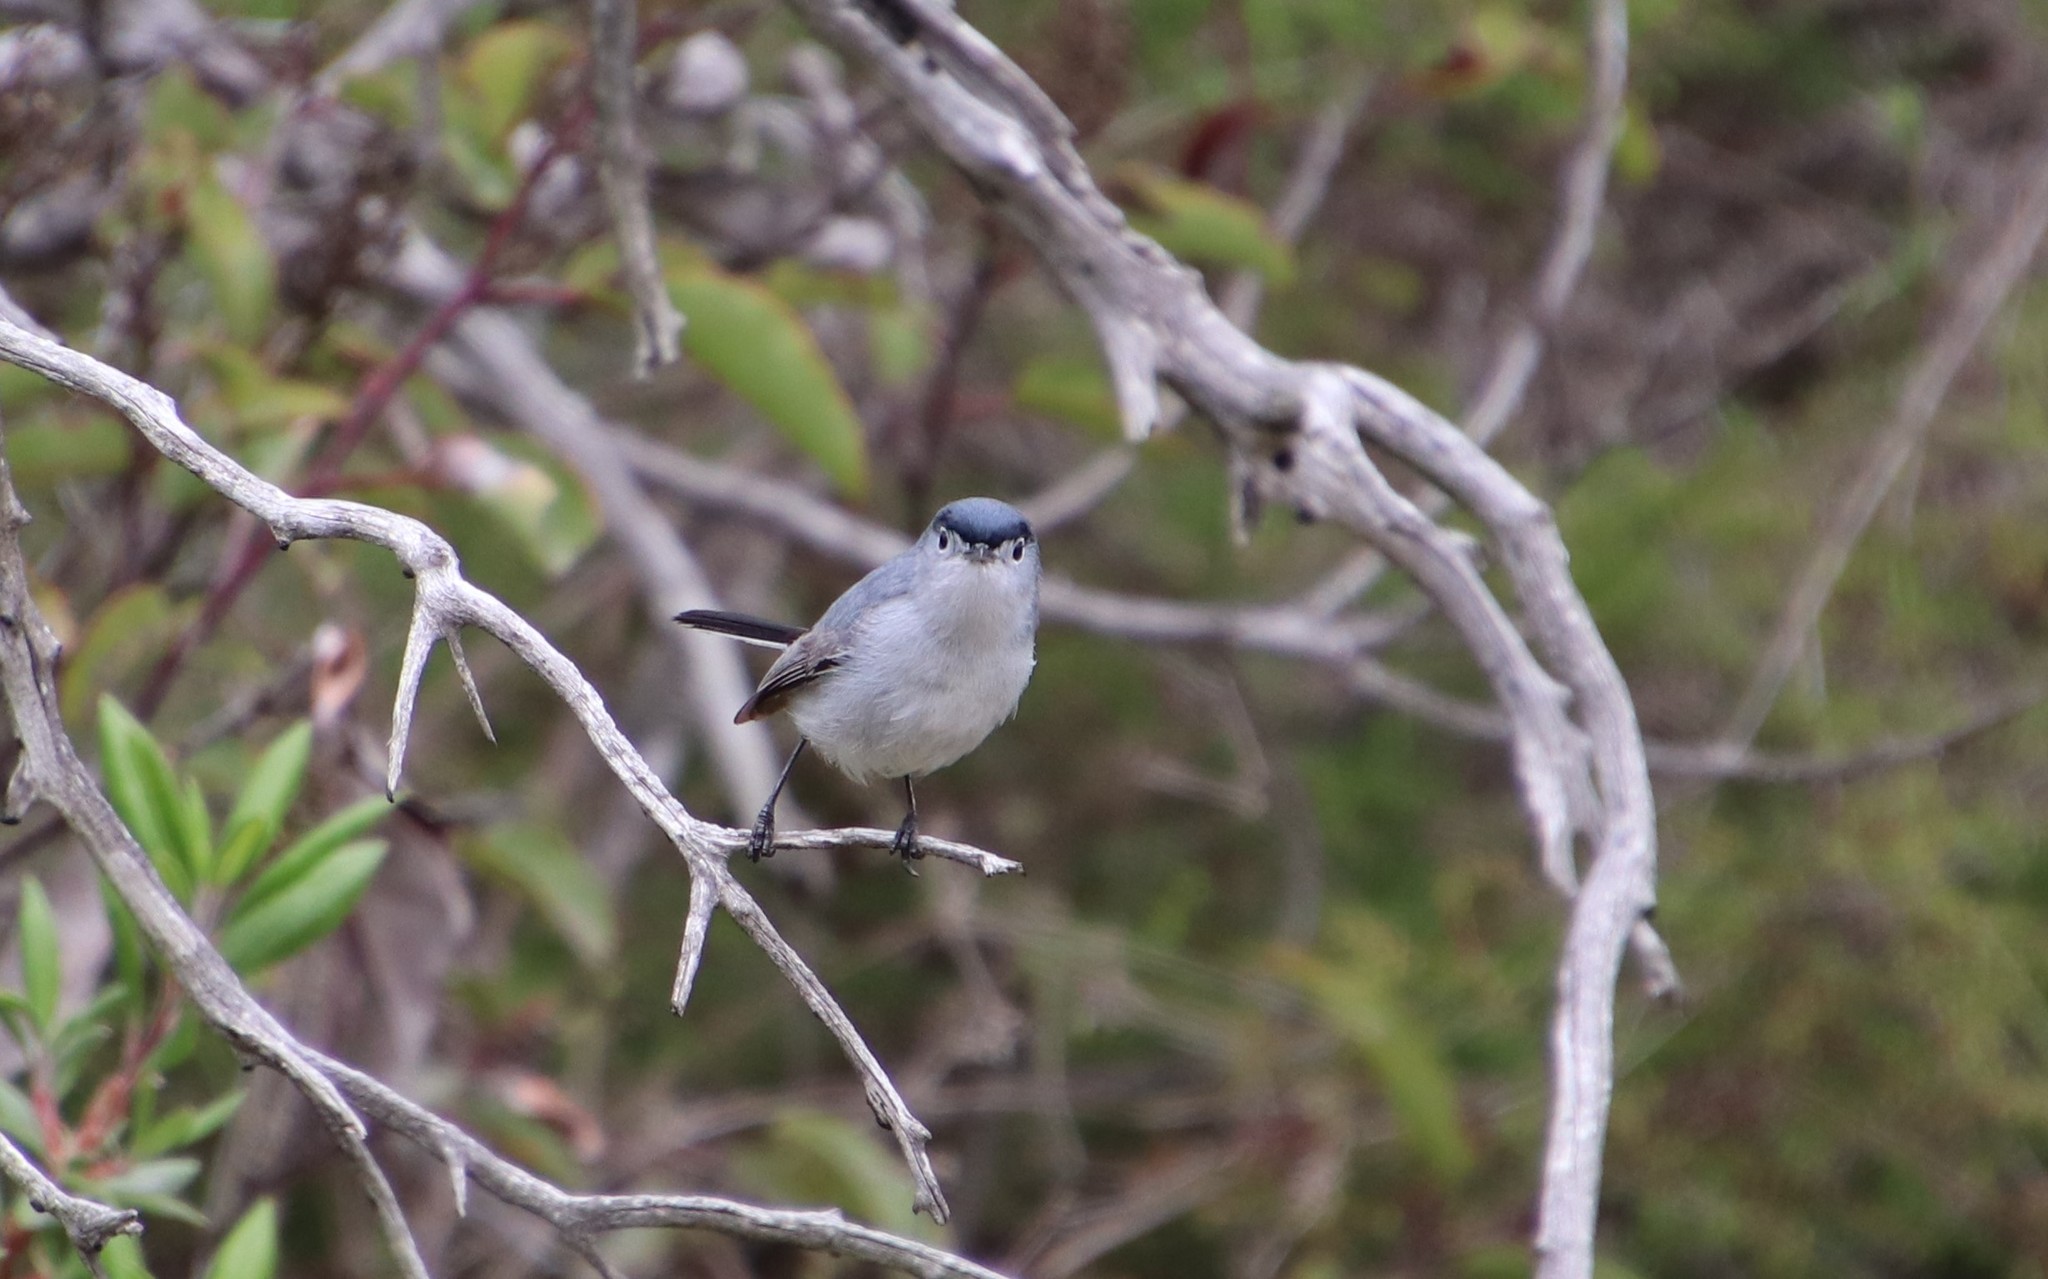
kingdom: Animalia
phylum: Chordata
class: Aves
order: Passeriformes
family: Polioptilidae
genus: Polioptila
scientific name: Polioptila caerulea
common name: Blue-gray gnatcatcher
